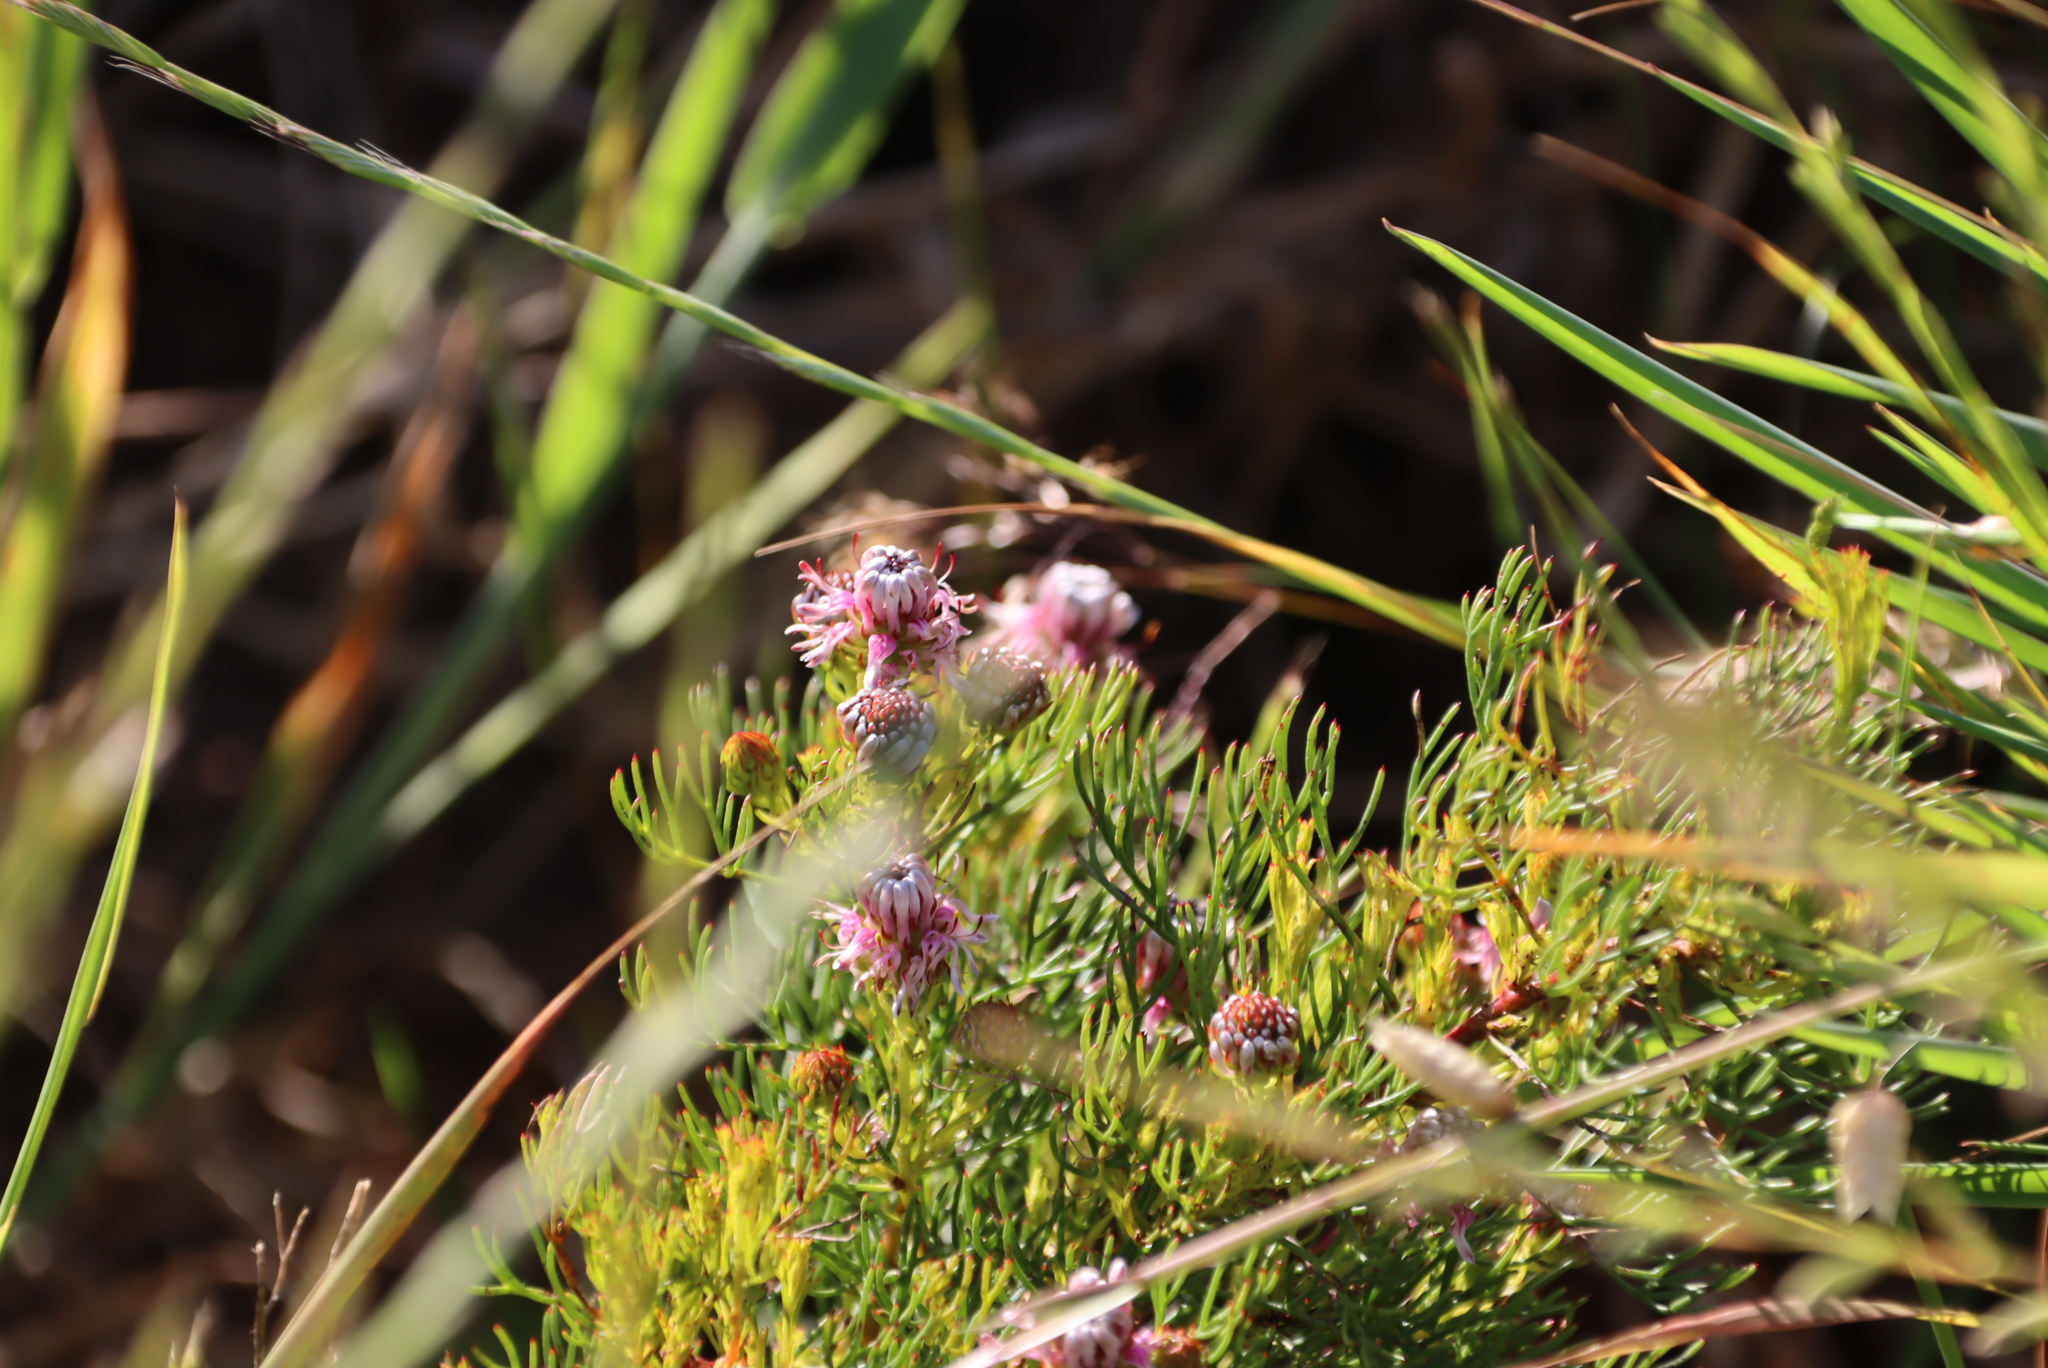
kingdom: Plantae
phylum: Tracheophyta
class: Magnoliopsida
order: Proteales
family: Proteaceae
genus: Serruria
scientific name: Serruria
